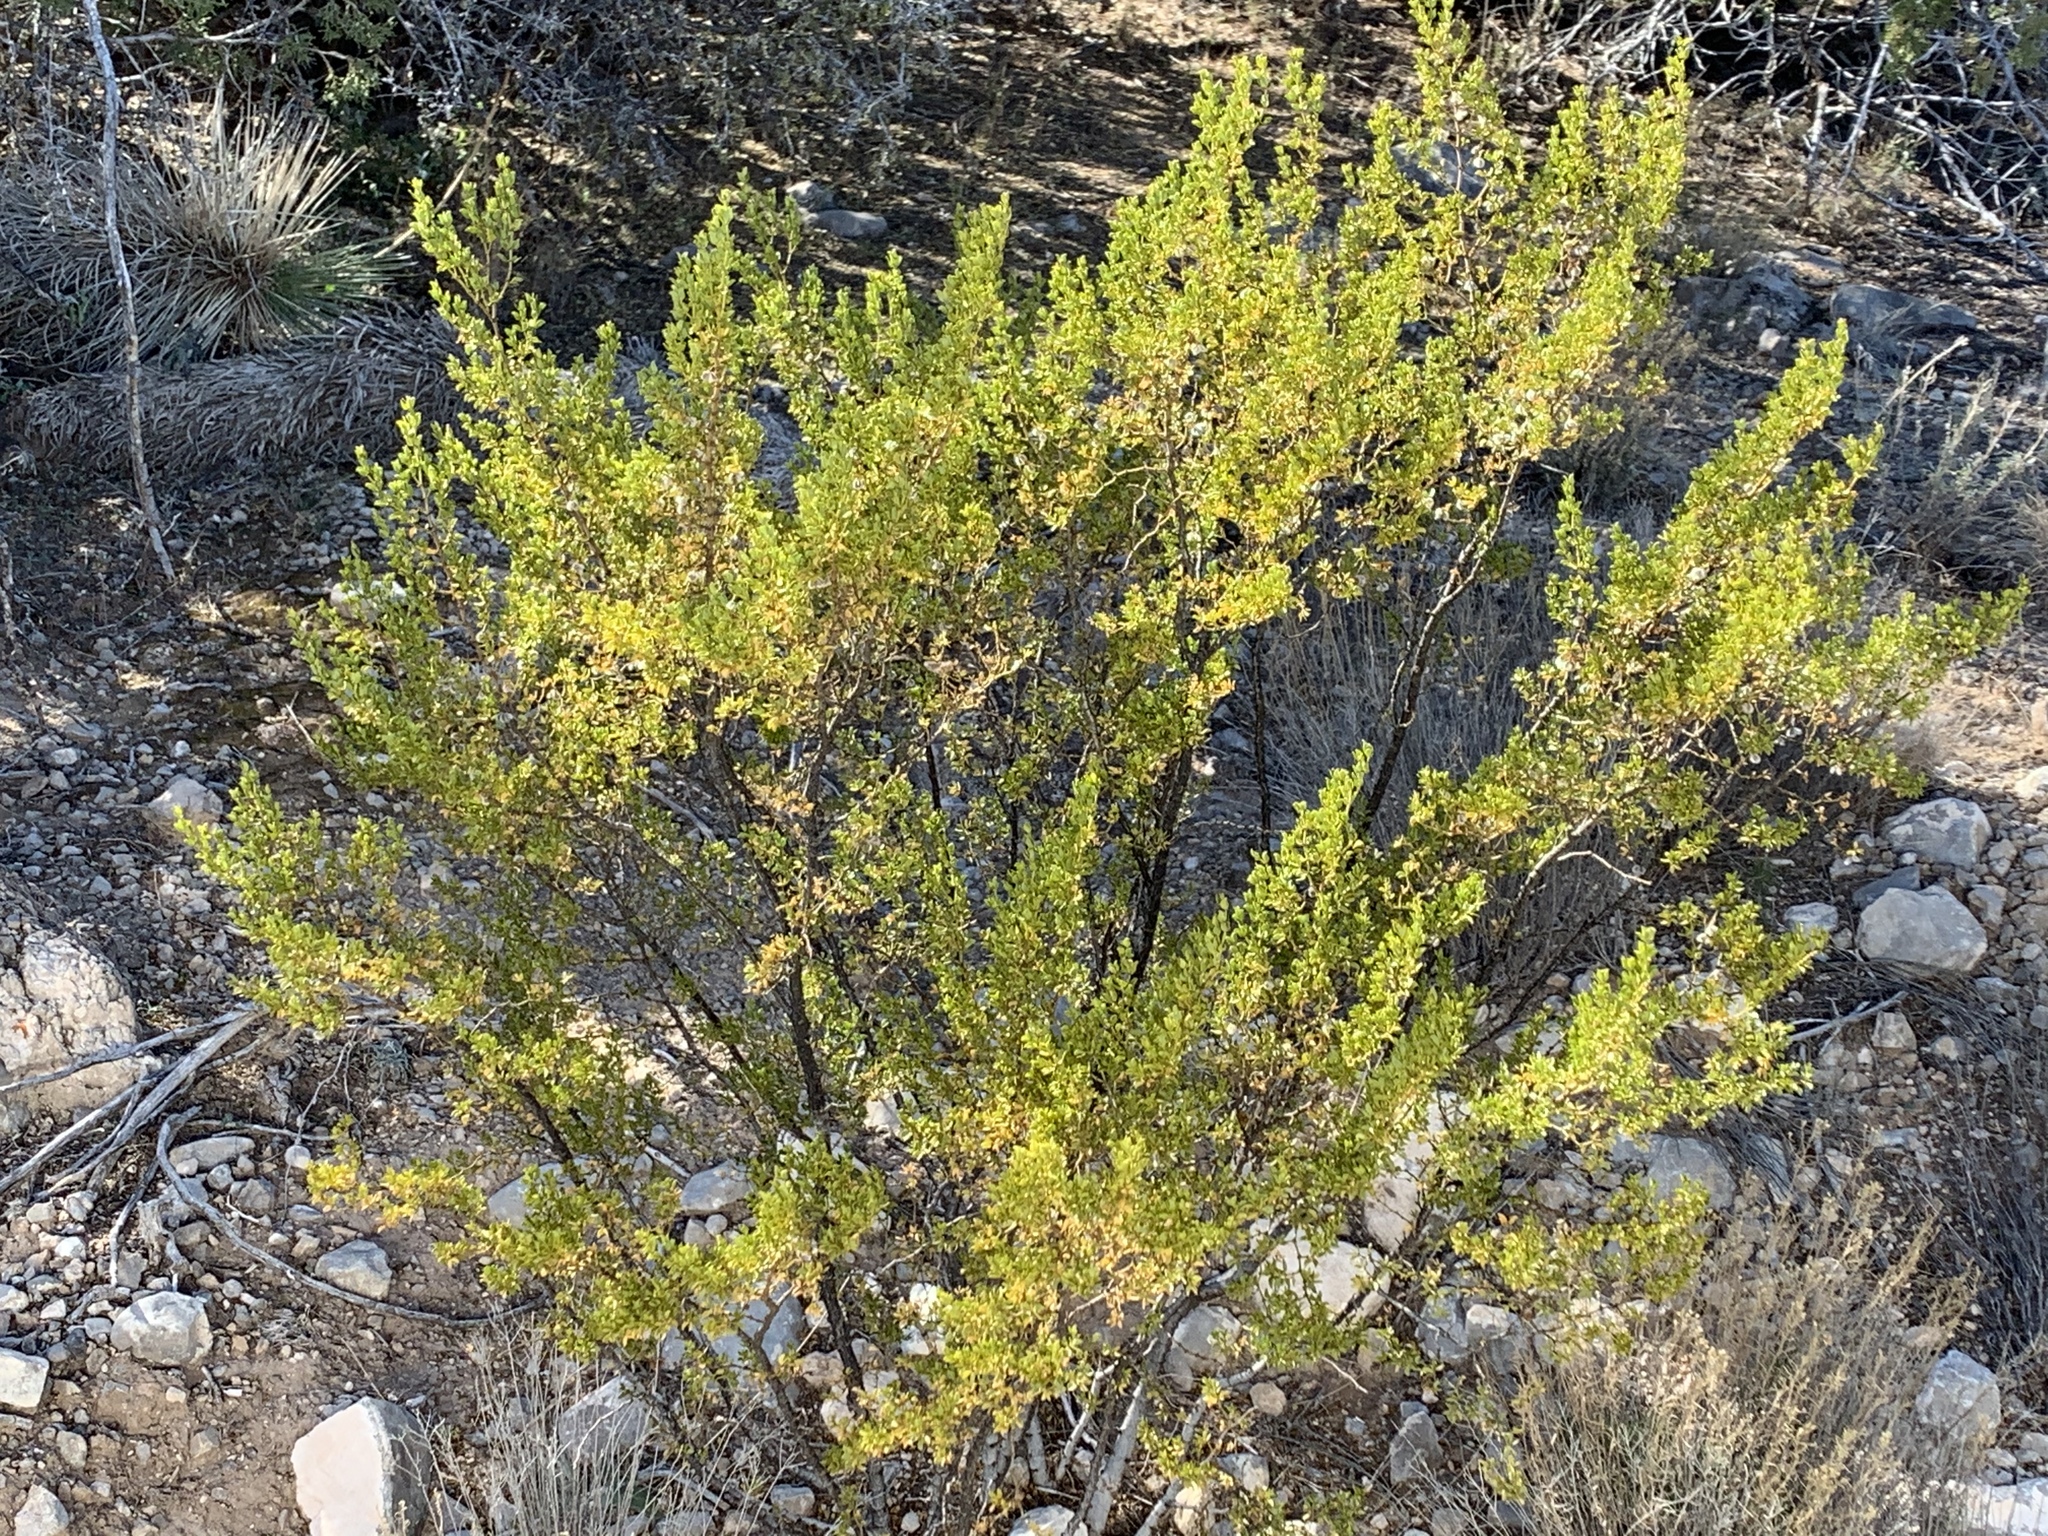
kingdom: Plantae
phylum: Tracheophyta
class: Magnoliopsida
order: Zygophyllales
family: Zygophyllaceae
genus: Larrea
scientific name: Larrea tridentata
